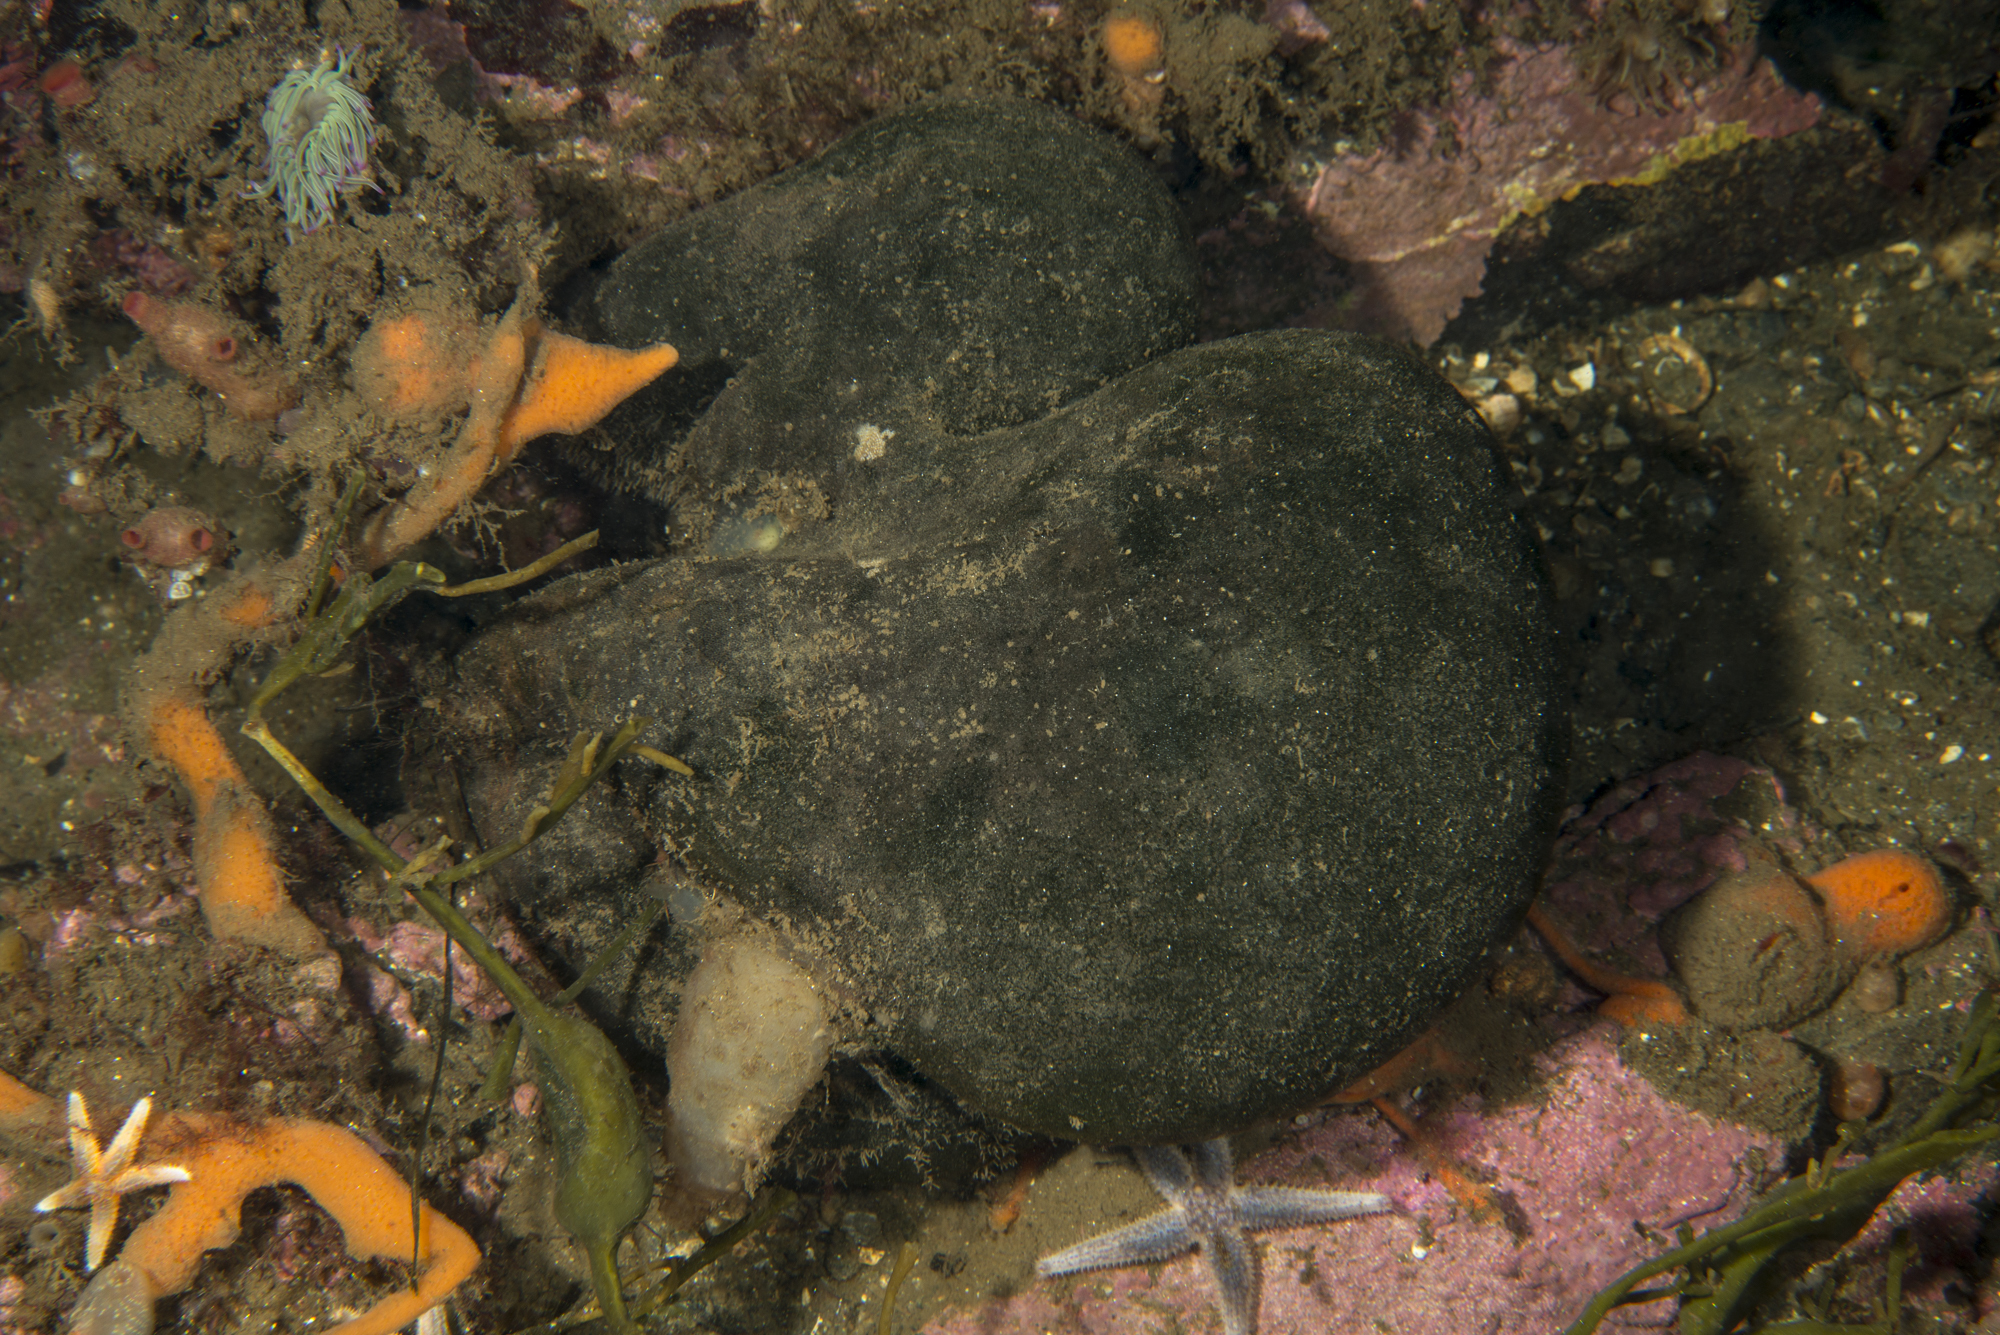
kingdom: Plantae
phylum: Chlorophyta
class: Ulvophyceae
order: Bryopsidales
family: Codiaceae
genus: Codium
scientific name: Codium bursa
